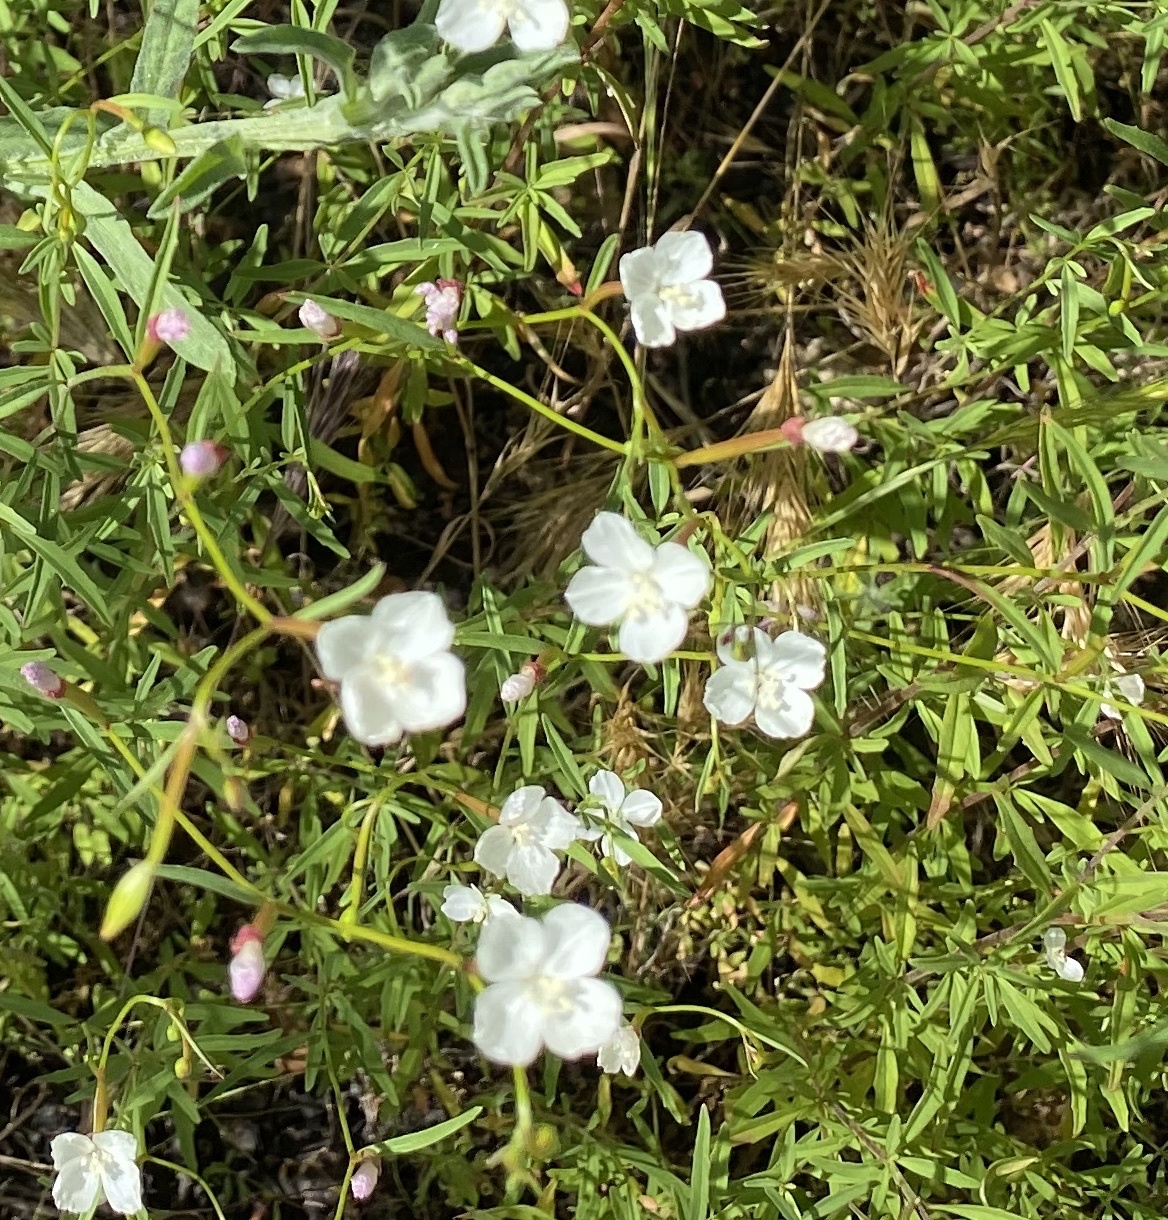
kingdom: Plantae
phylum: Tracheophyta
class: Magnoliopsida
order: Myrtales
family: Onagraceae
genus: Clarkia
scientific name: Clarkia epilobioides
